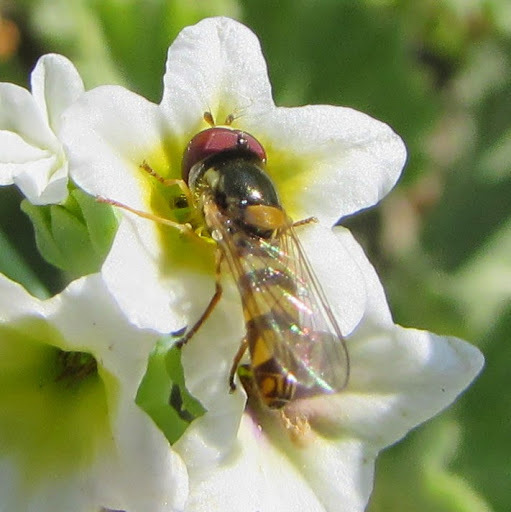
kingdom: Animalia
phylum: Arthropoda
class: Insecta
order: Diptera
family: Syrphidae
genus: Allograpta
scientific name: Allograpta obliqua
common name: Common oblique syrphid
